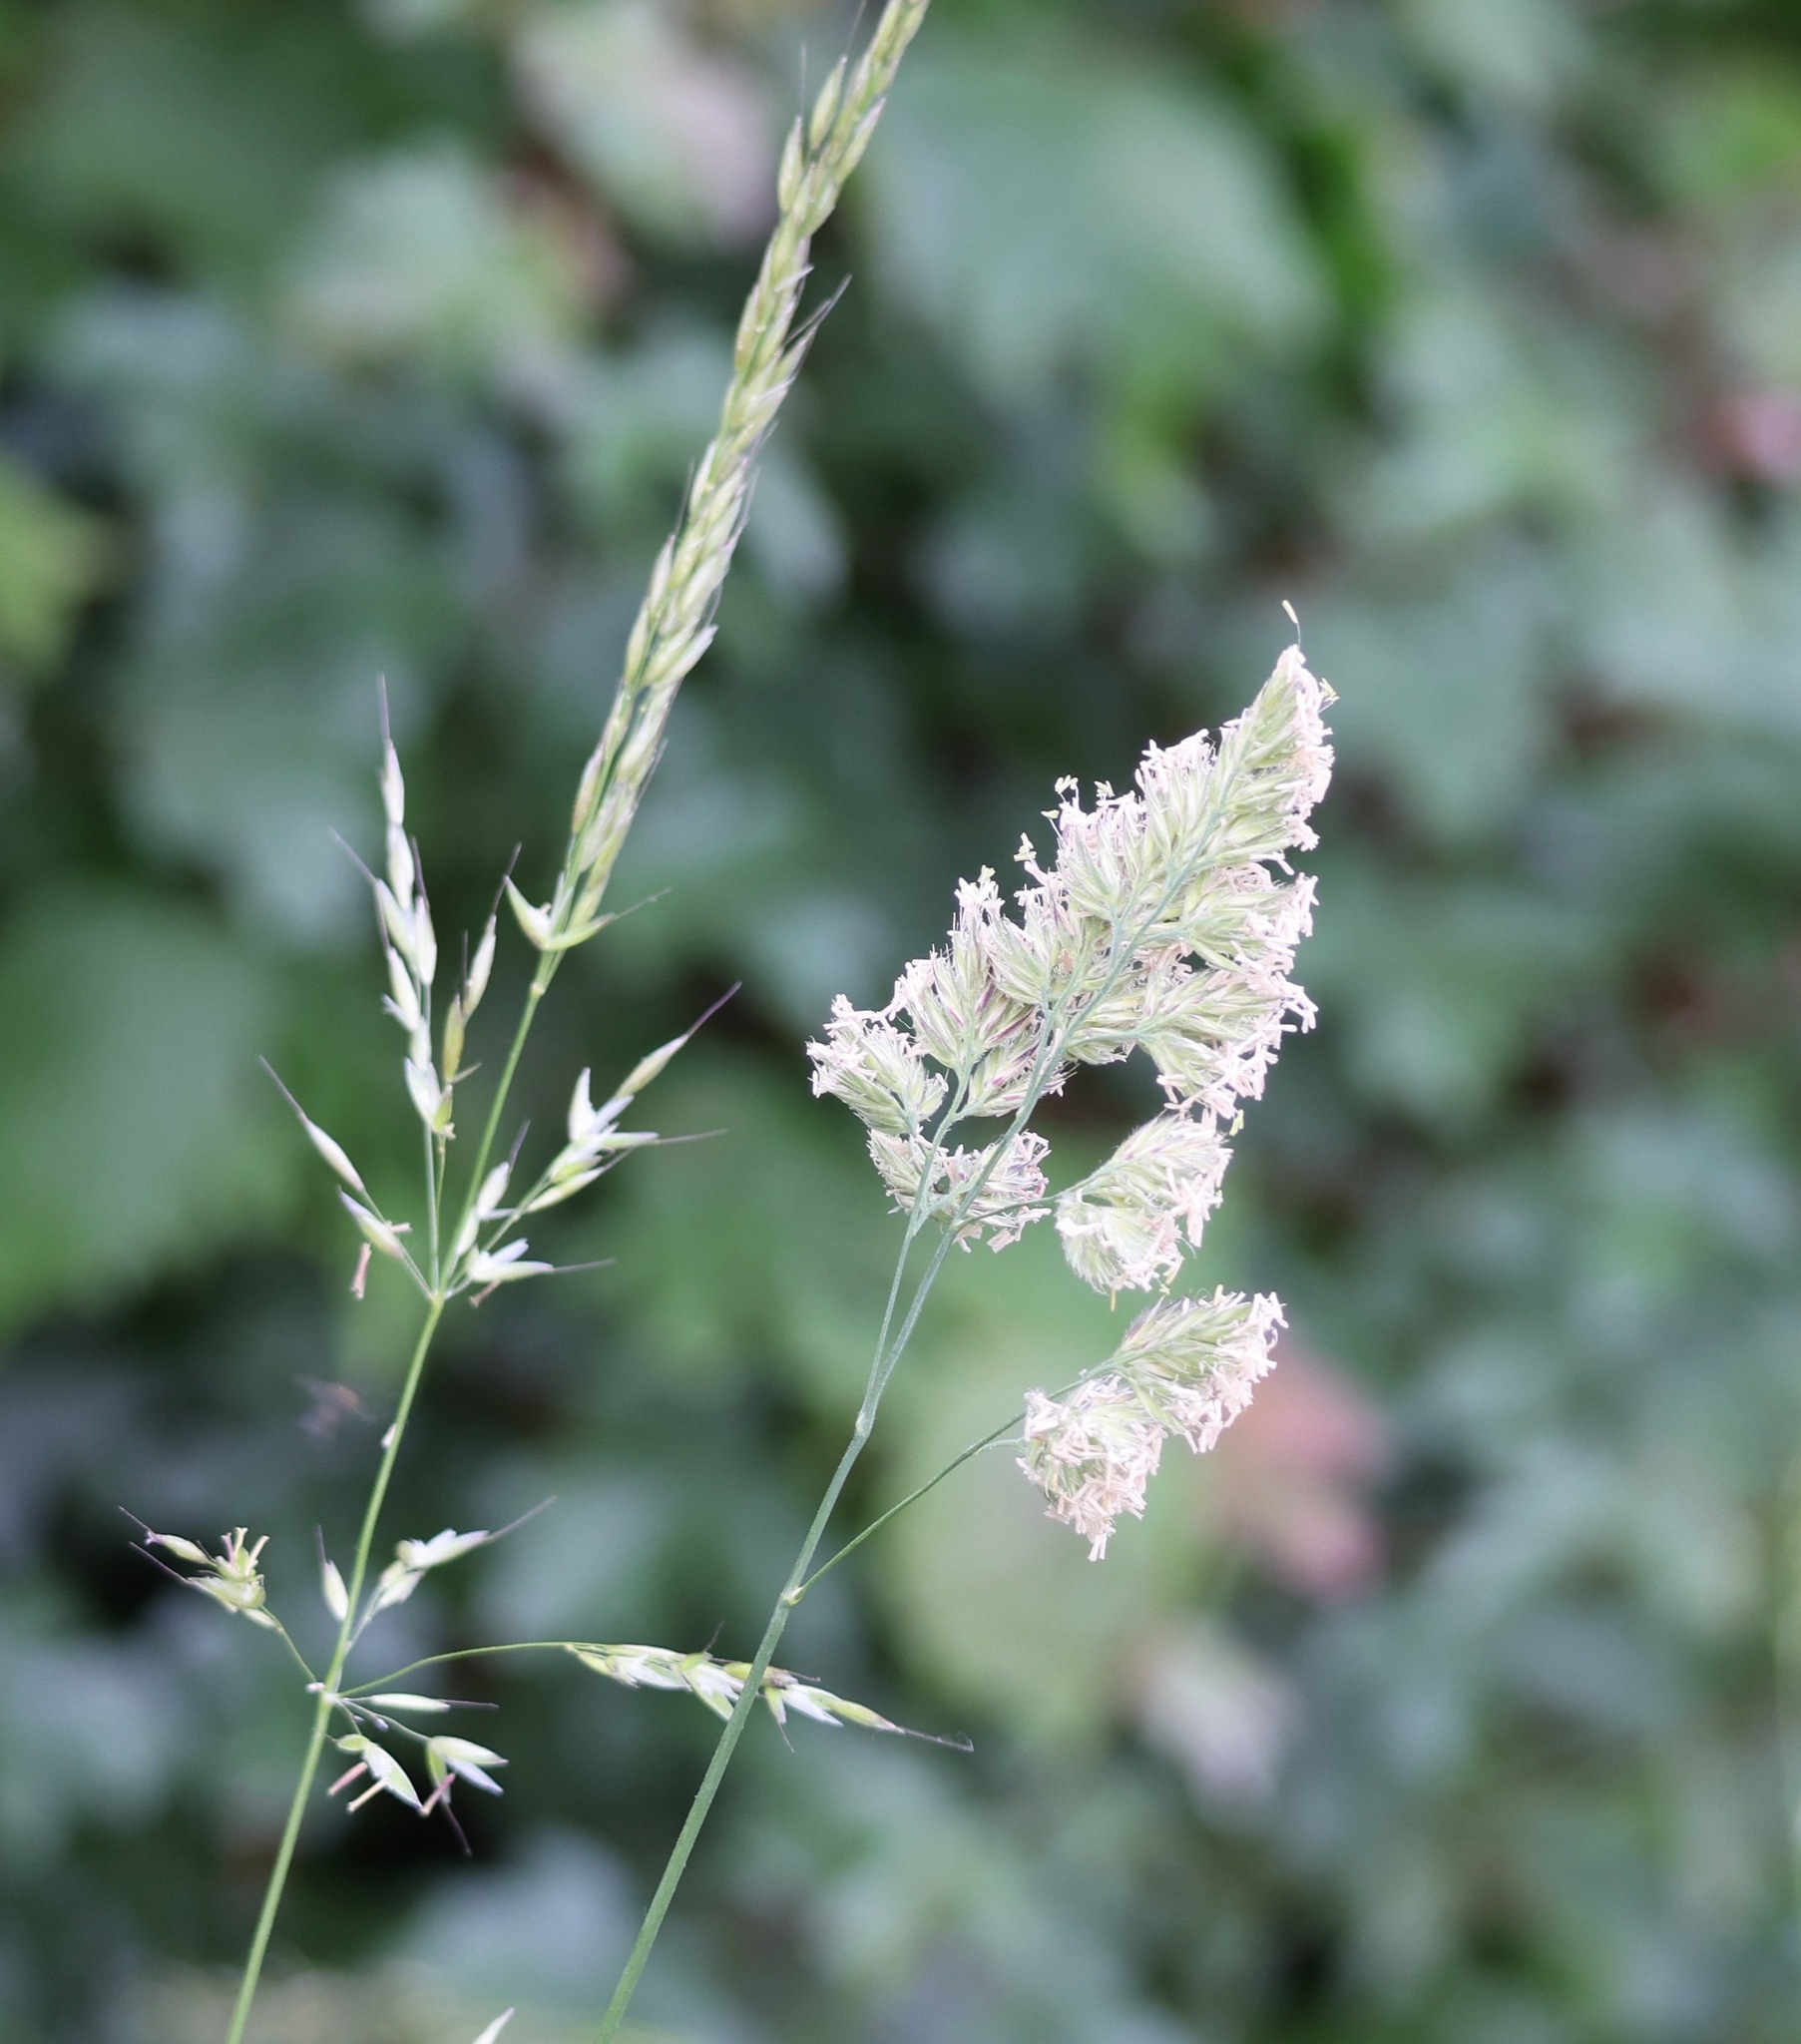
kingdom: Plantae
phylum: Tracheophyta
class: Liliopsida
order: Poales
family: Poaceae
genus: Dactylis
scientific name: Dactylis glomerata
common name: Orchardgrass
